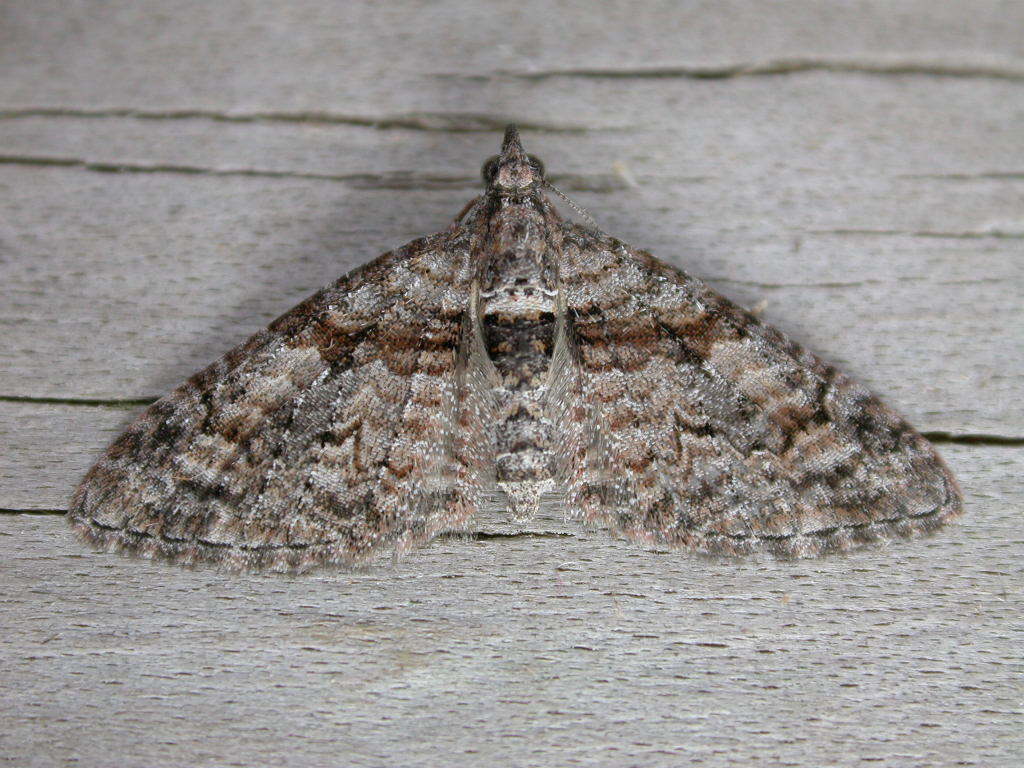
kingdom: Animalia
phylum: Arthropoda
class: Insecta
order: Lepidoptera
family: Geometridae
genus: Phrissogonus
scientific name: Phrissogonus laticostata
